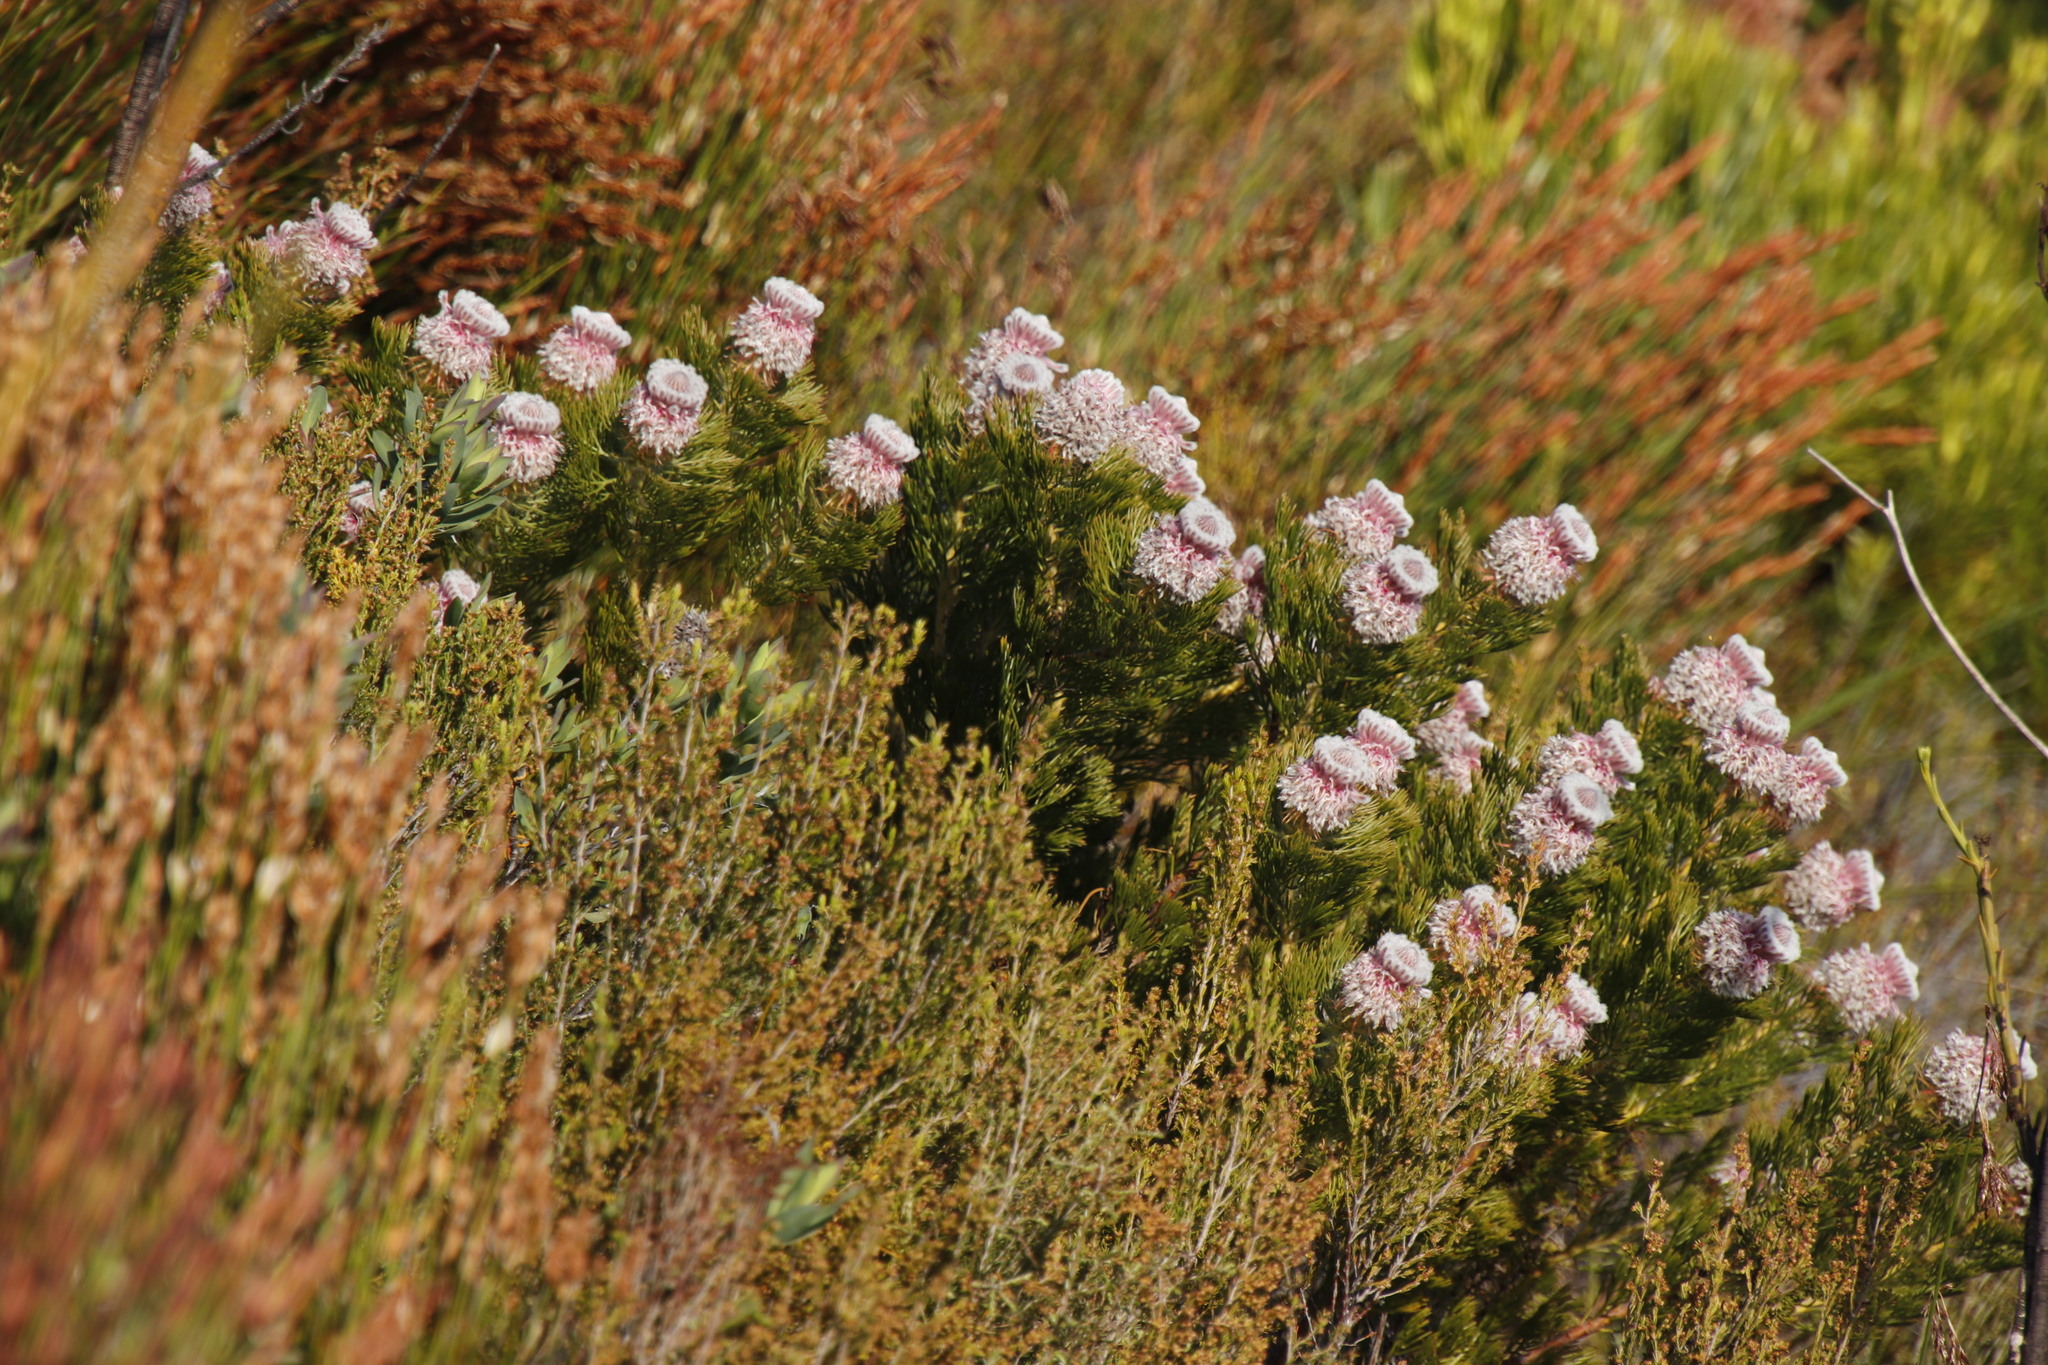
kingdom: Plantae
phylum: Tracheophyta
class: Magnoliopsida
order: Proteales
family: Proteaceae
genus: Serruria
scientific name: Serruria hirsuta
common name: Swartkops spiderhead
